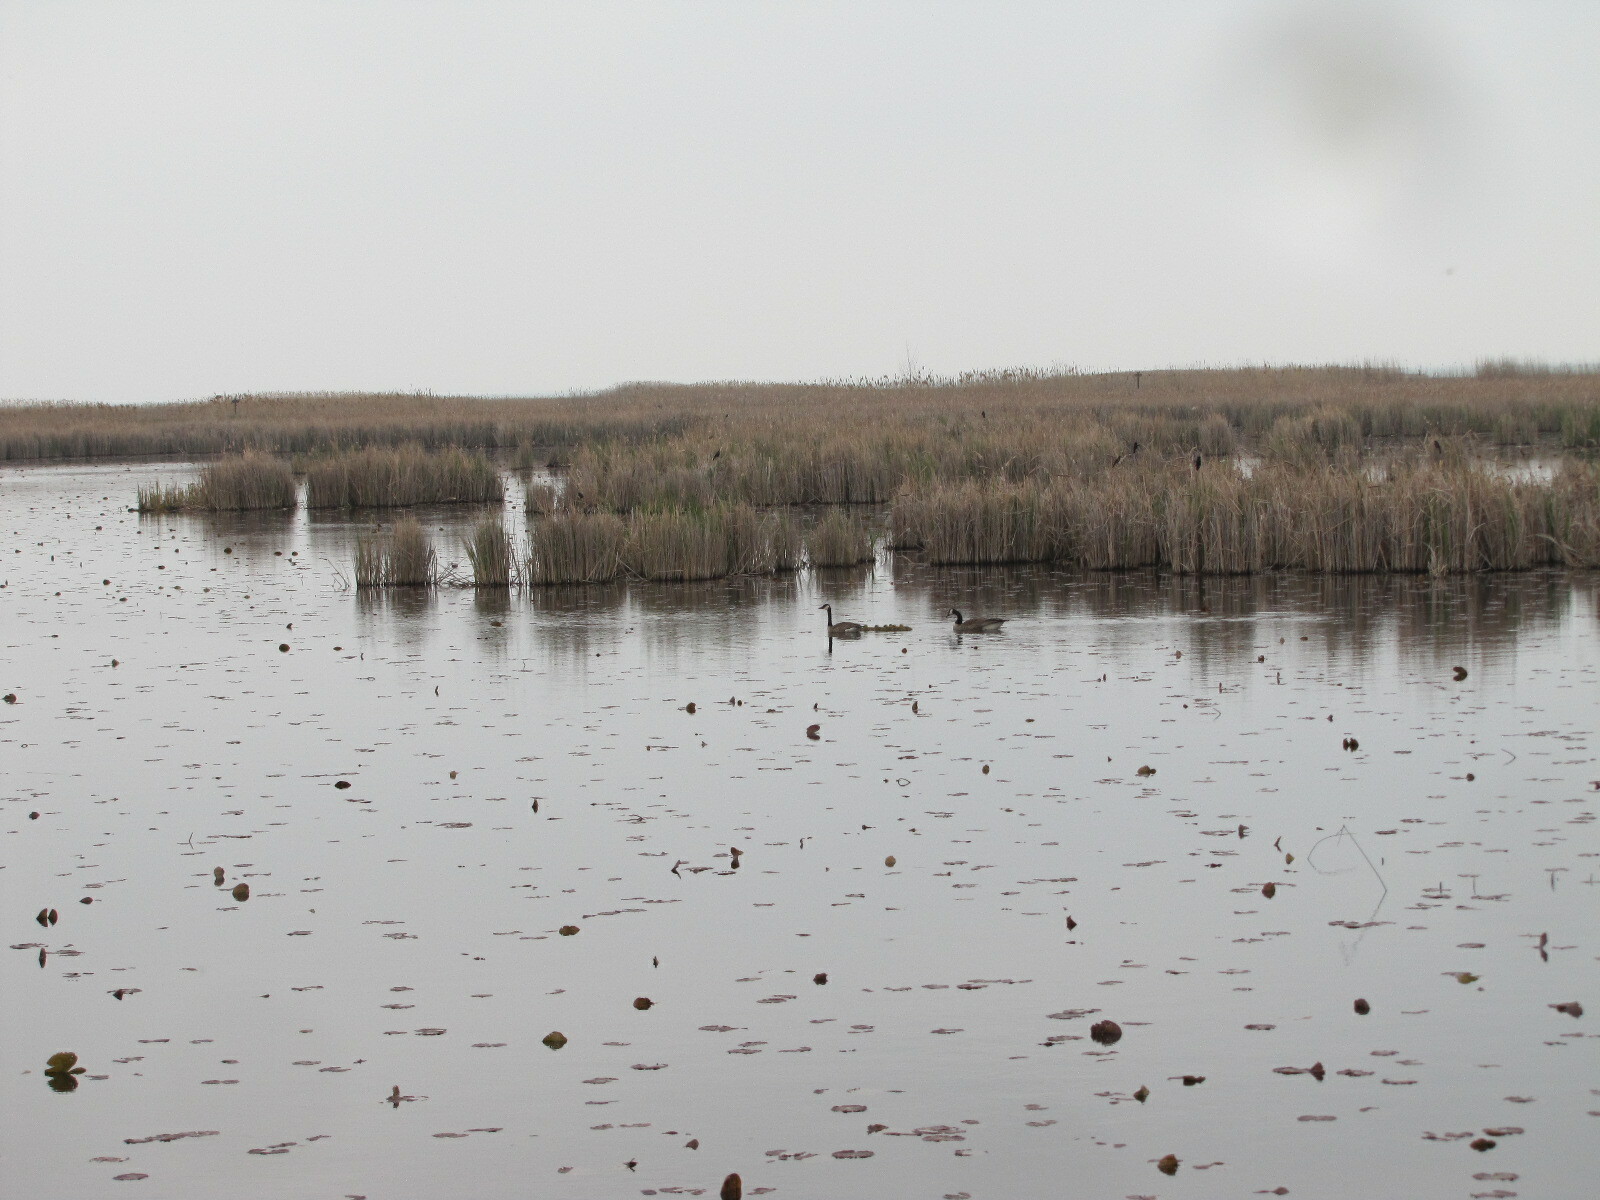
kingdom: Animalia
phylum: Chordata
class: Aves
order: Anseriformes
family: Anatidae
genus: Branta
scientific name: Branta canadensis
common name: Canada goose
